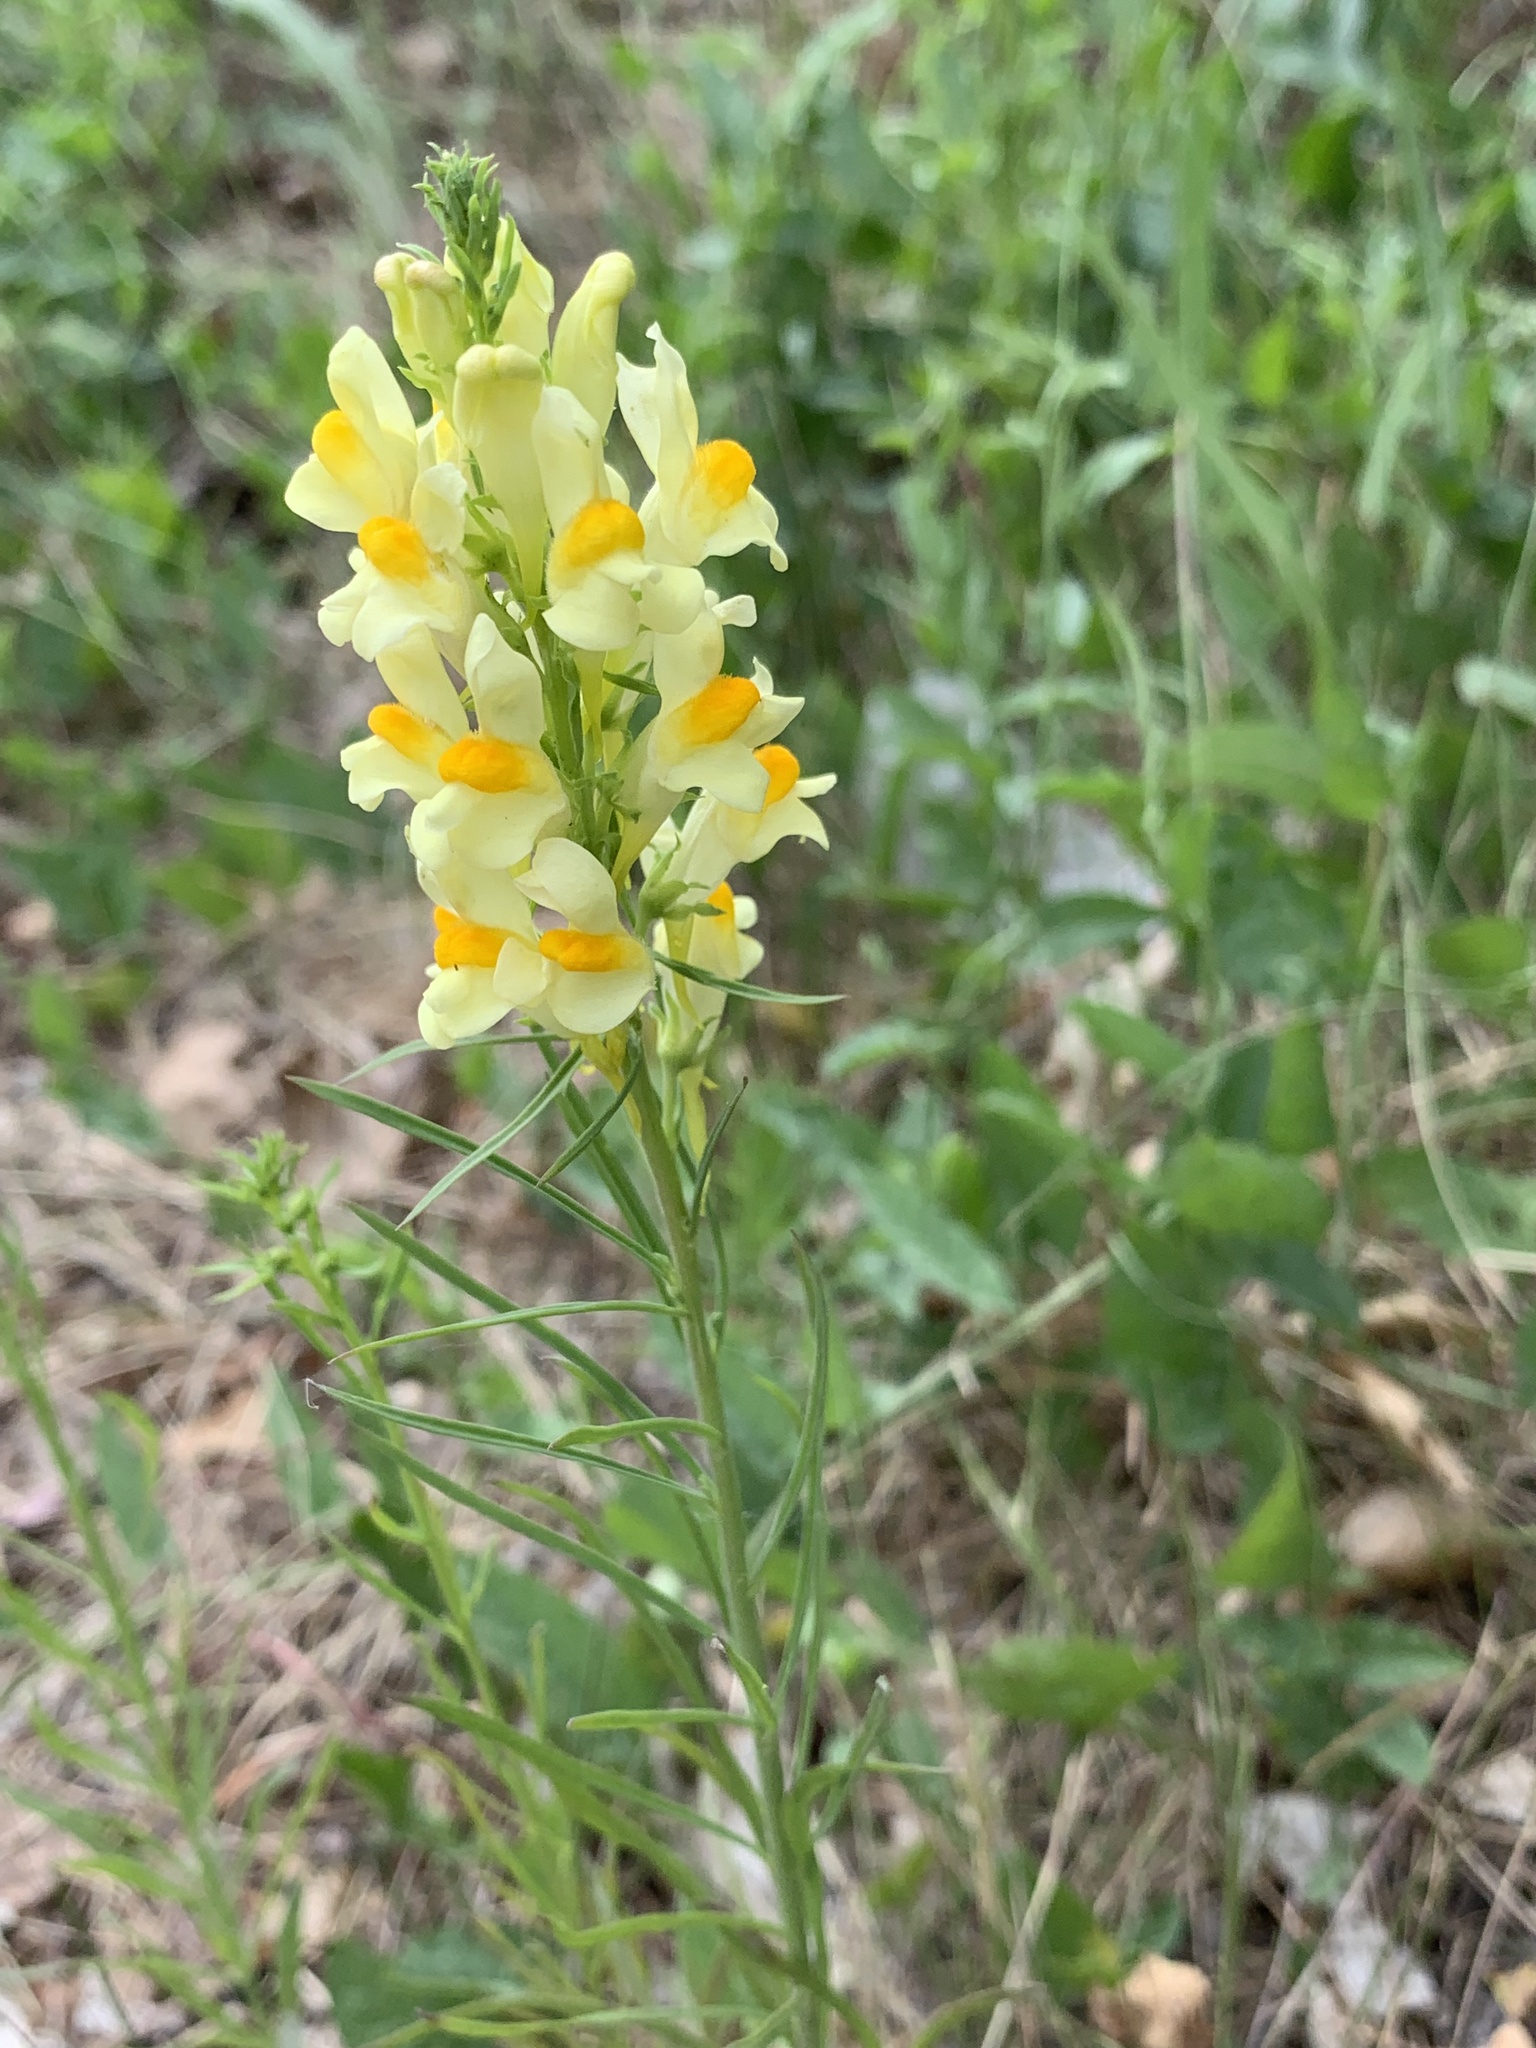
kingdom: Plantae
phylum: Tracheophyta
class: Magnoliopsida
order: Lamiales
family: Plantaginaceae
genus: Linaria
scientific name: Linaria vulgaris
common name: Butter and eggs
